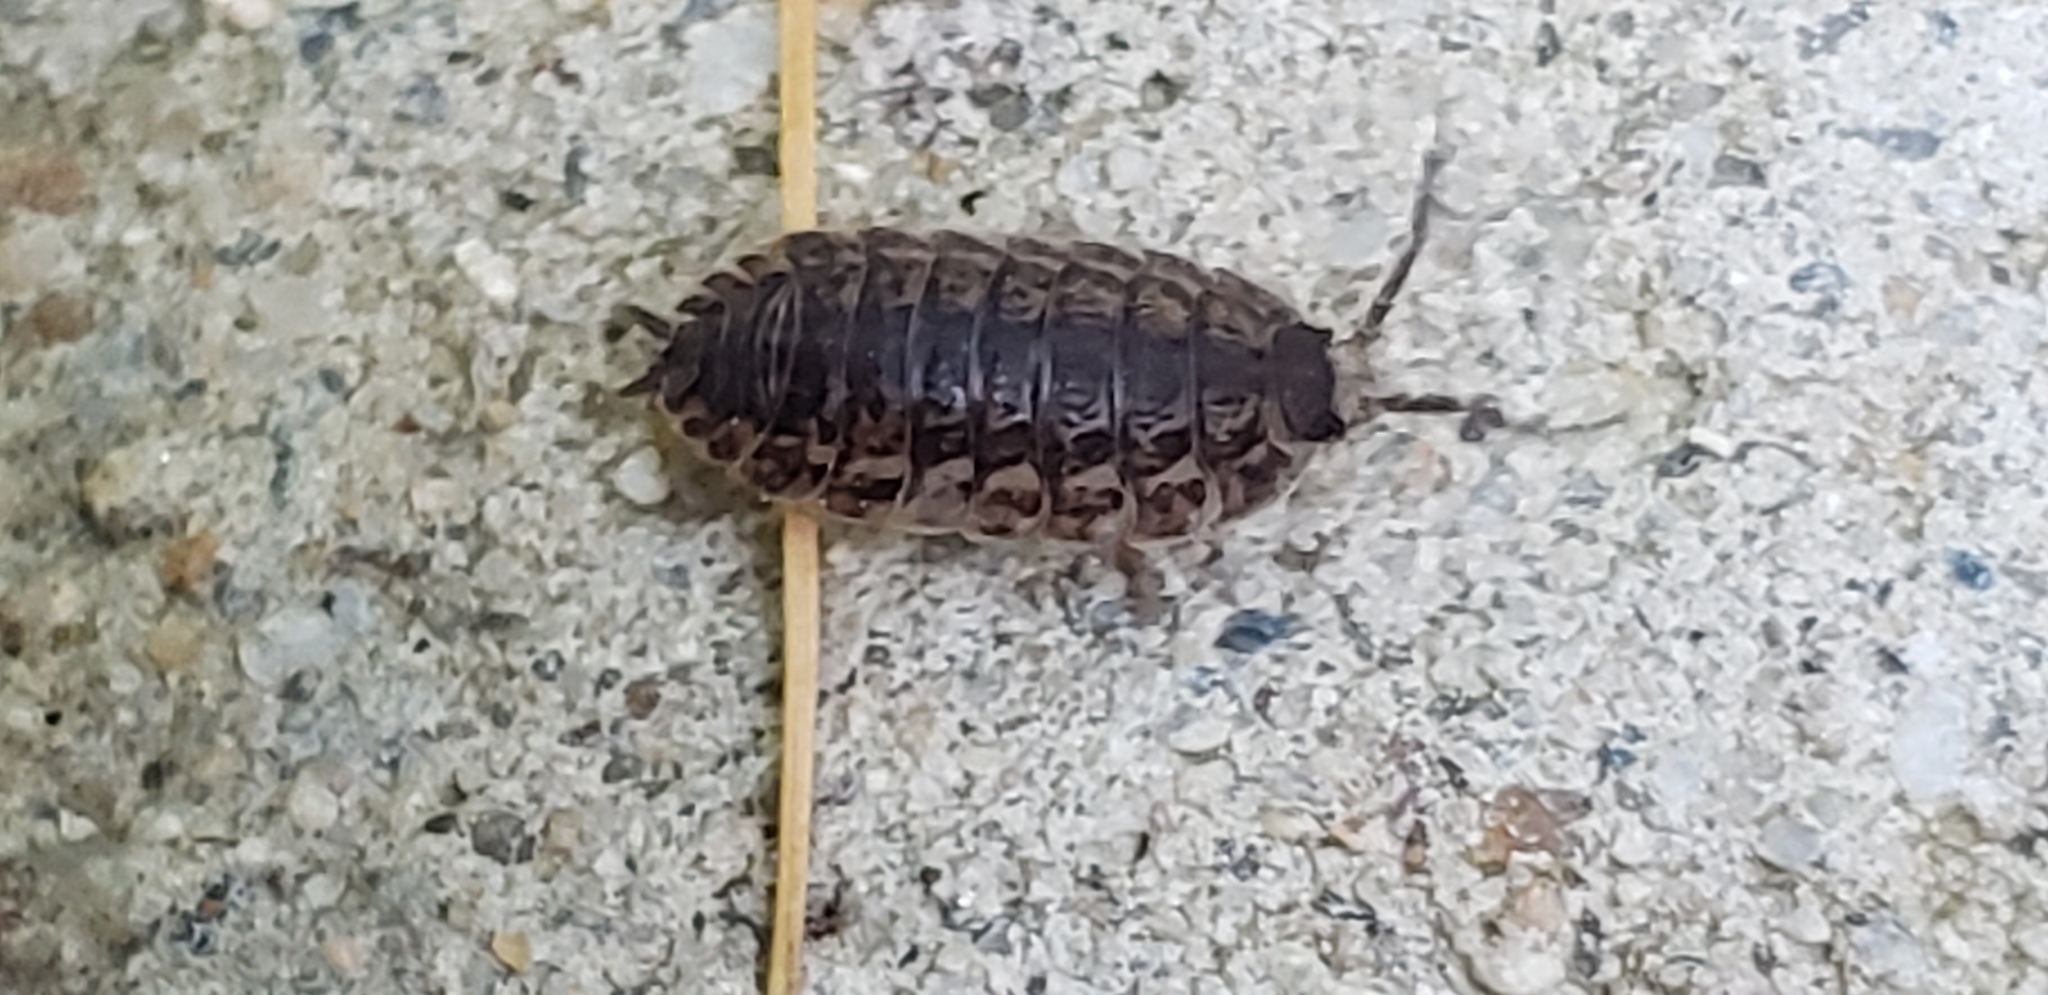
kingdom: Animalia
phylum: Arthropoda
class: Malacostraca
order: Isopoda
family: Trachelipodidae
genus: Trachelipus
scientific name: Trachelipus rathkii
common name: Isopod
